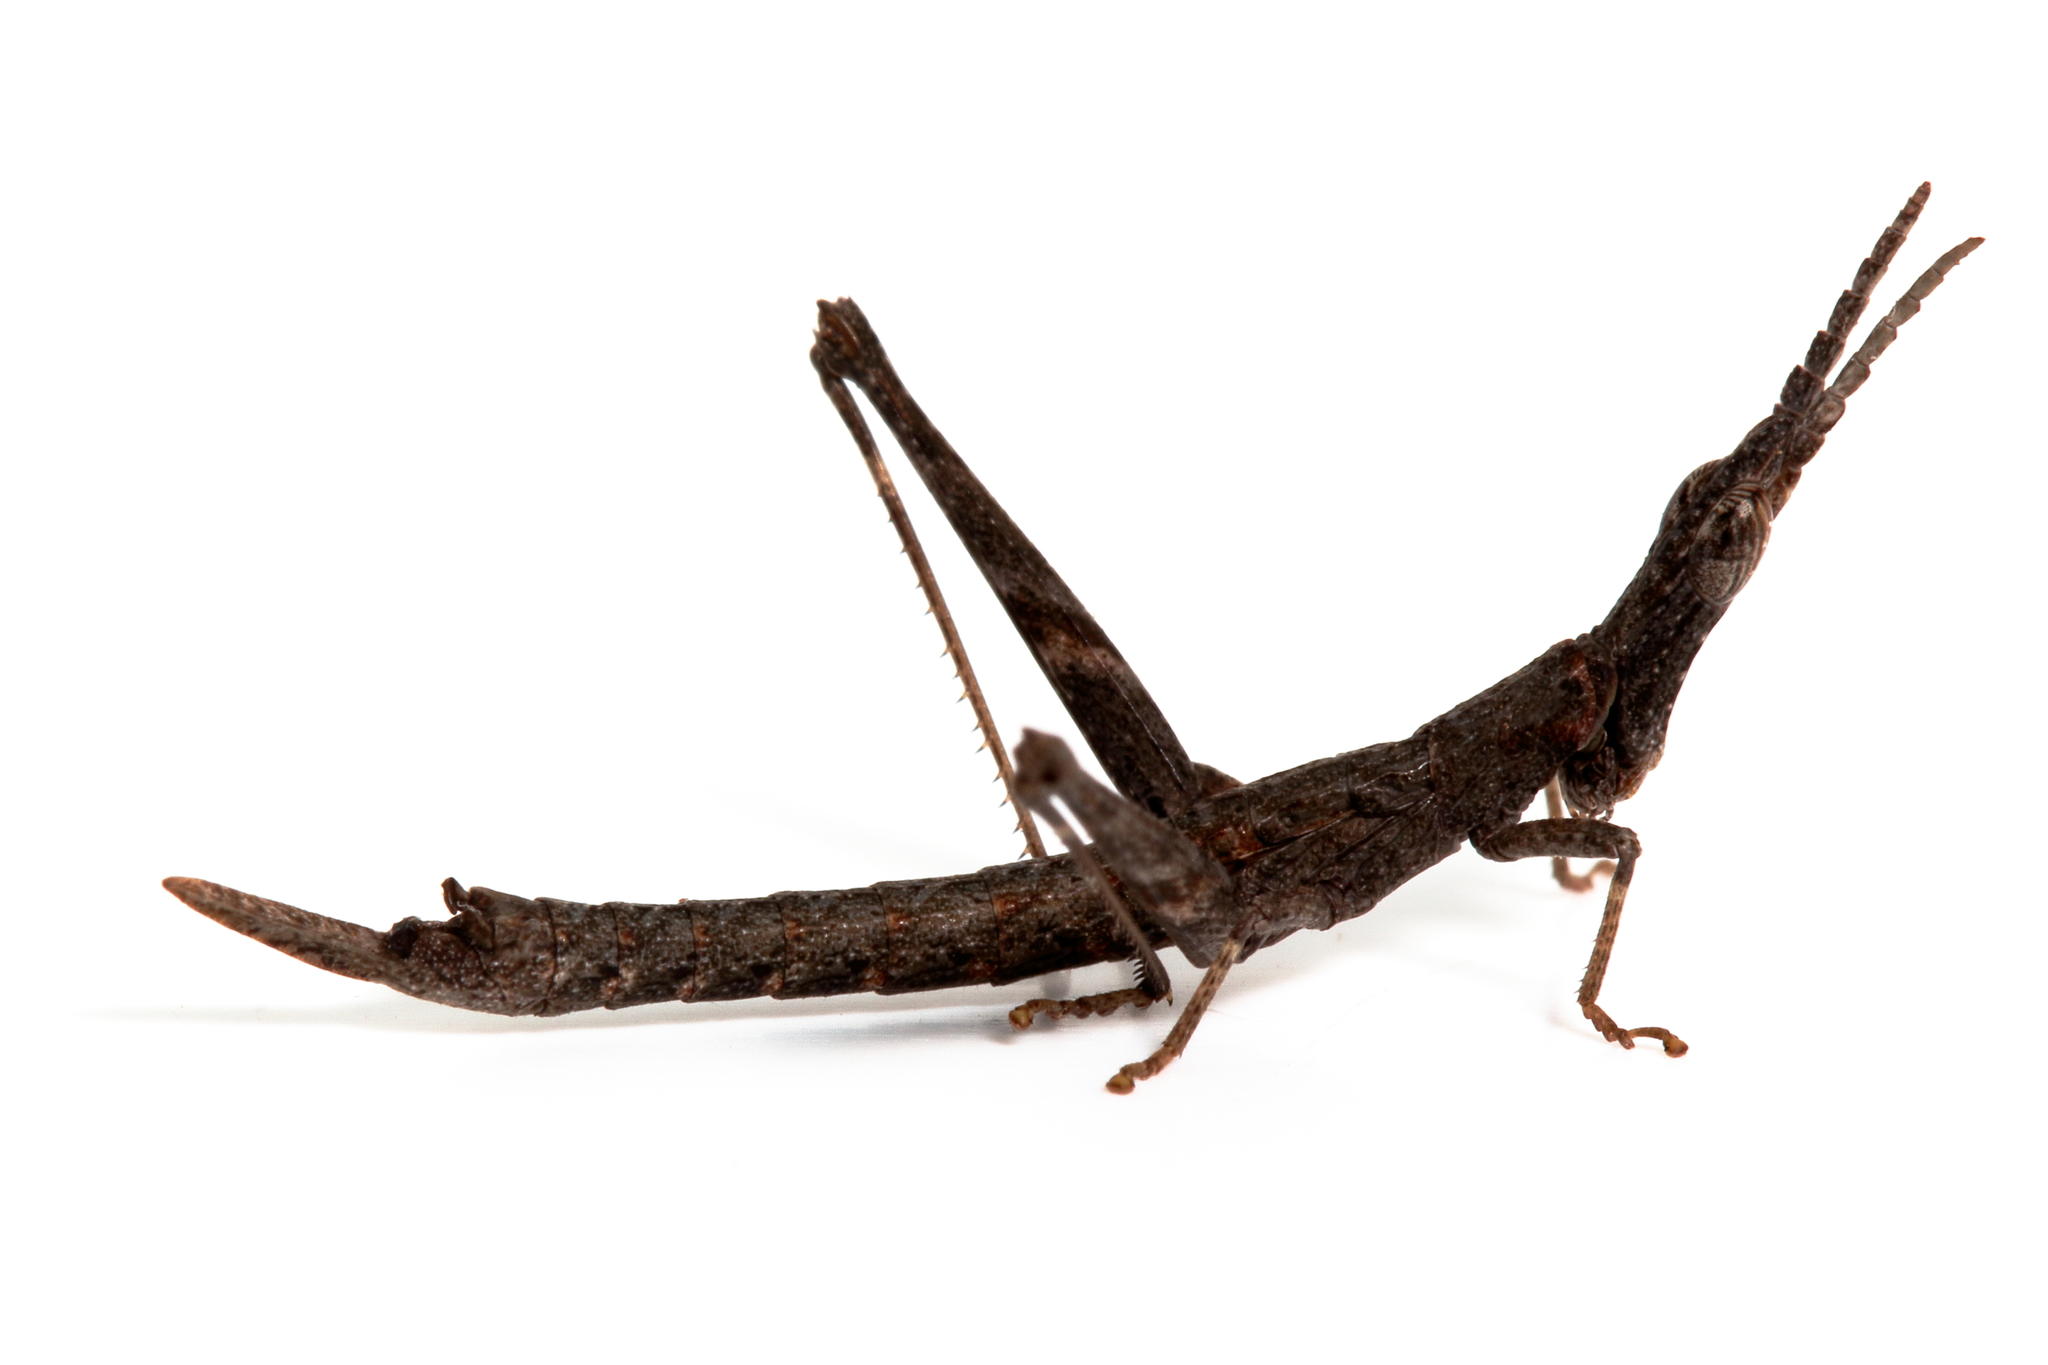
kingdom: Animalia
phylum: Arthropoda
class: Insecta
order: Orthoptera
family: Morabidae
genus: Vandiemenella
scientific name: Vandiemenella viatica
